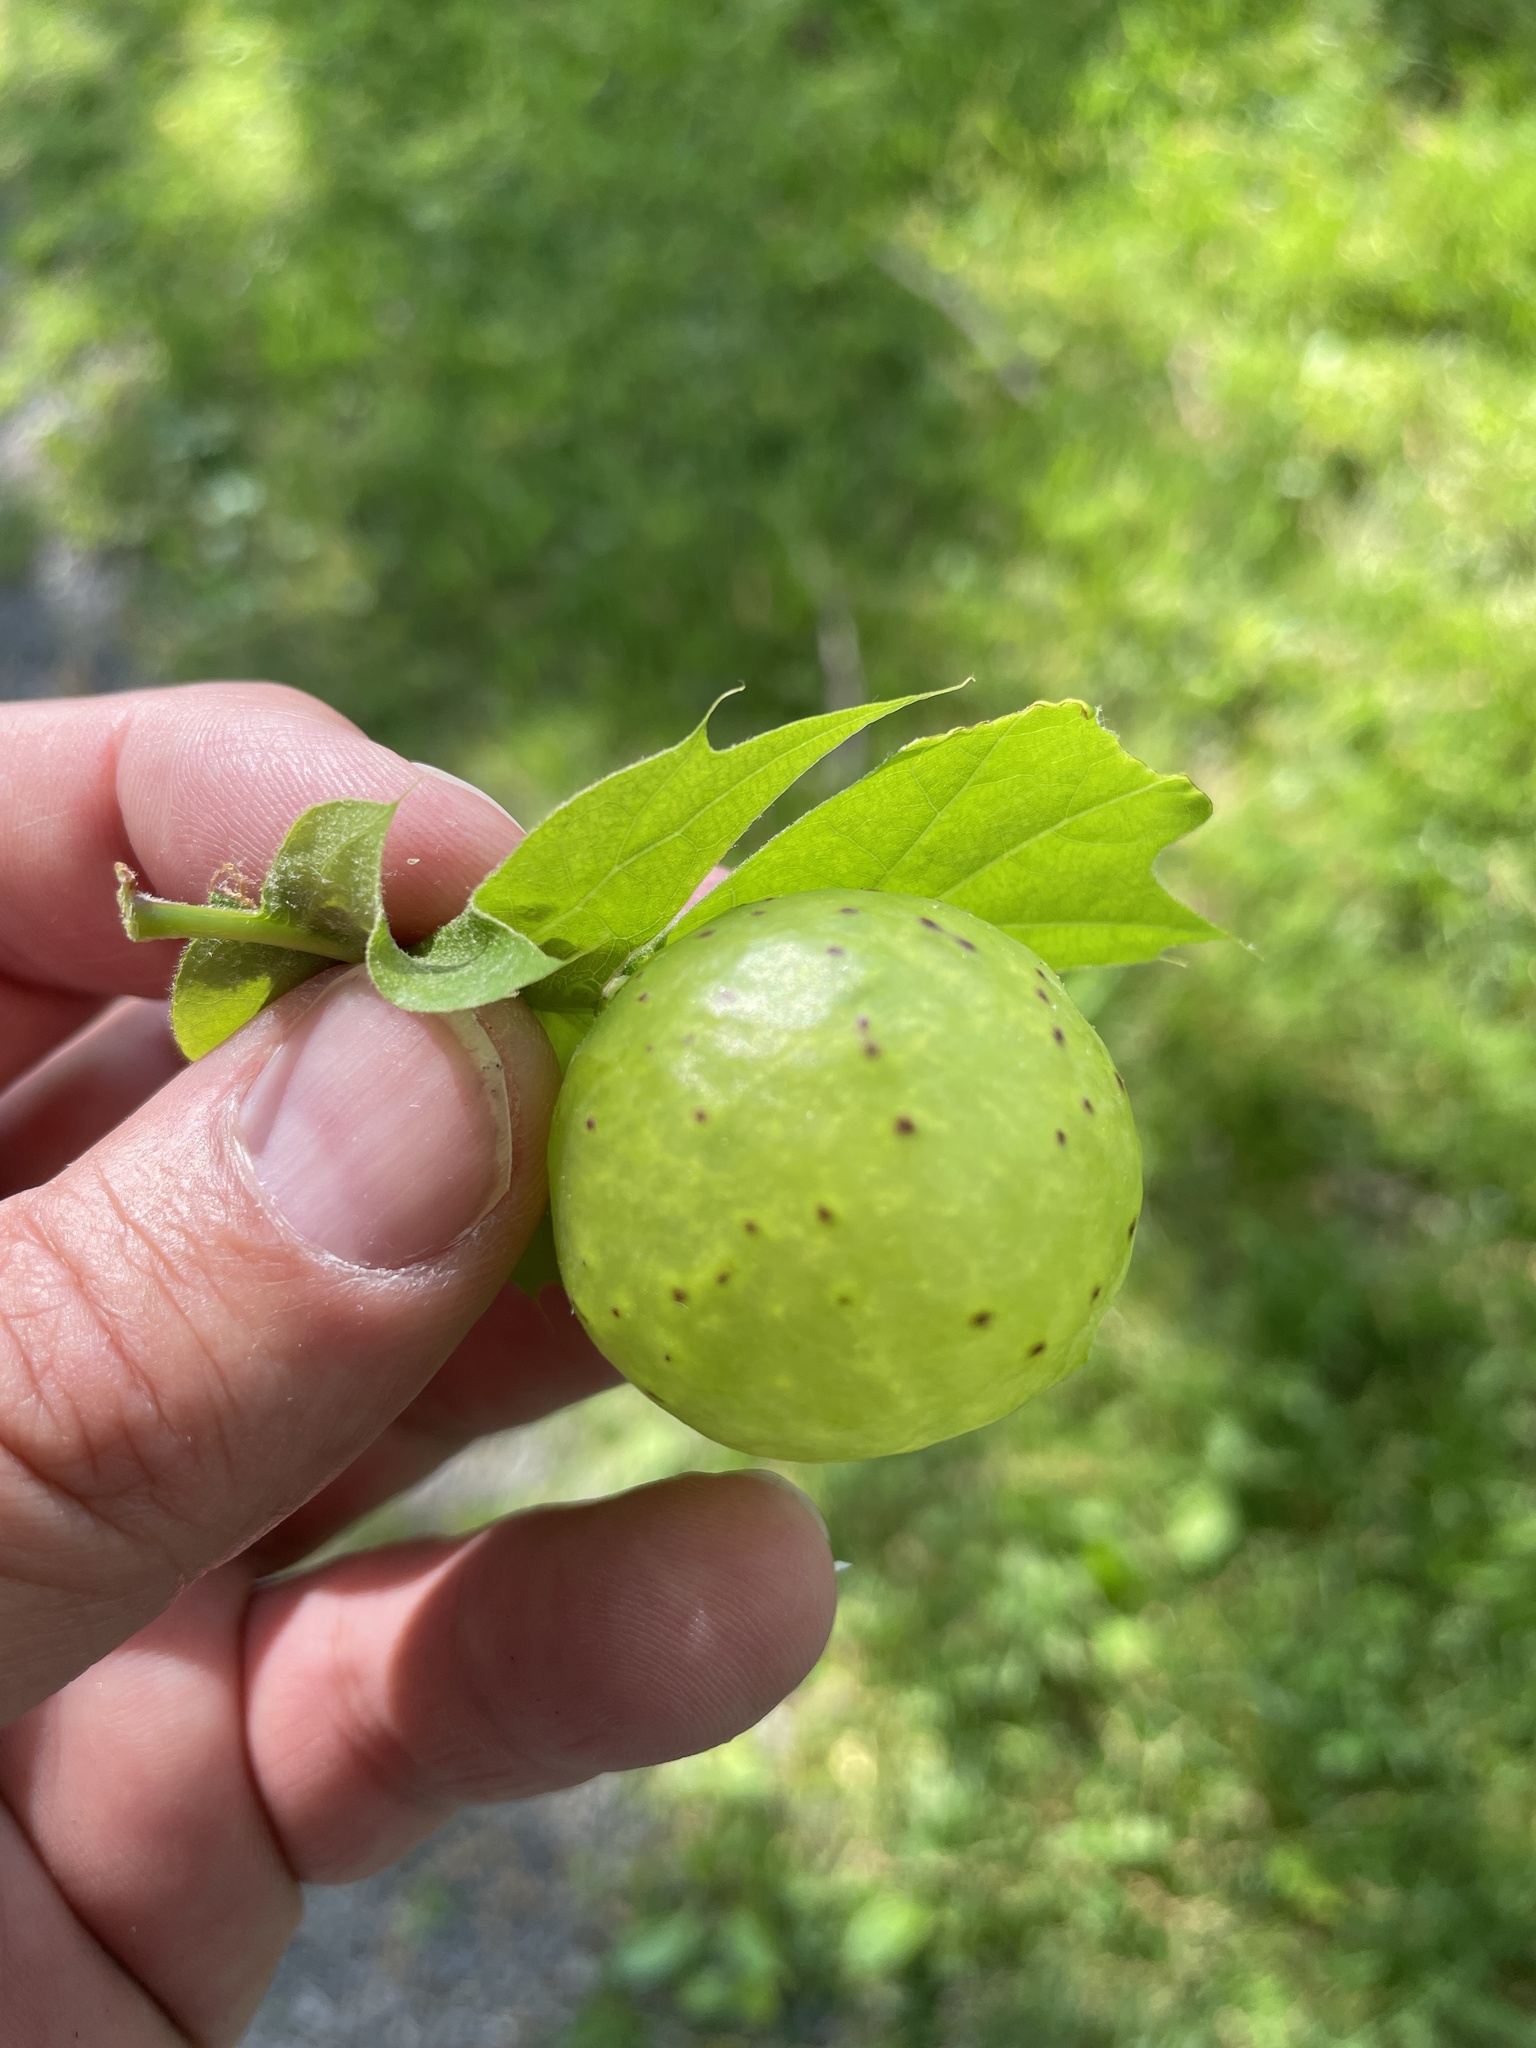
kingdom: Animalia
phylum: Arthropoda
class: Insecta
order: Hymenoptera
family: Cynipidae
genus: Amphibolips
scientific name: Amphibolips
